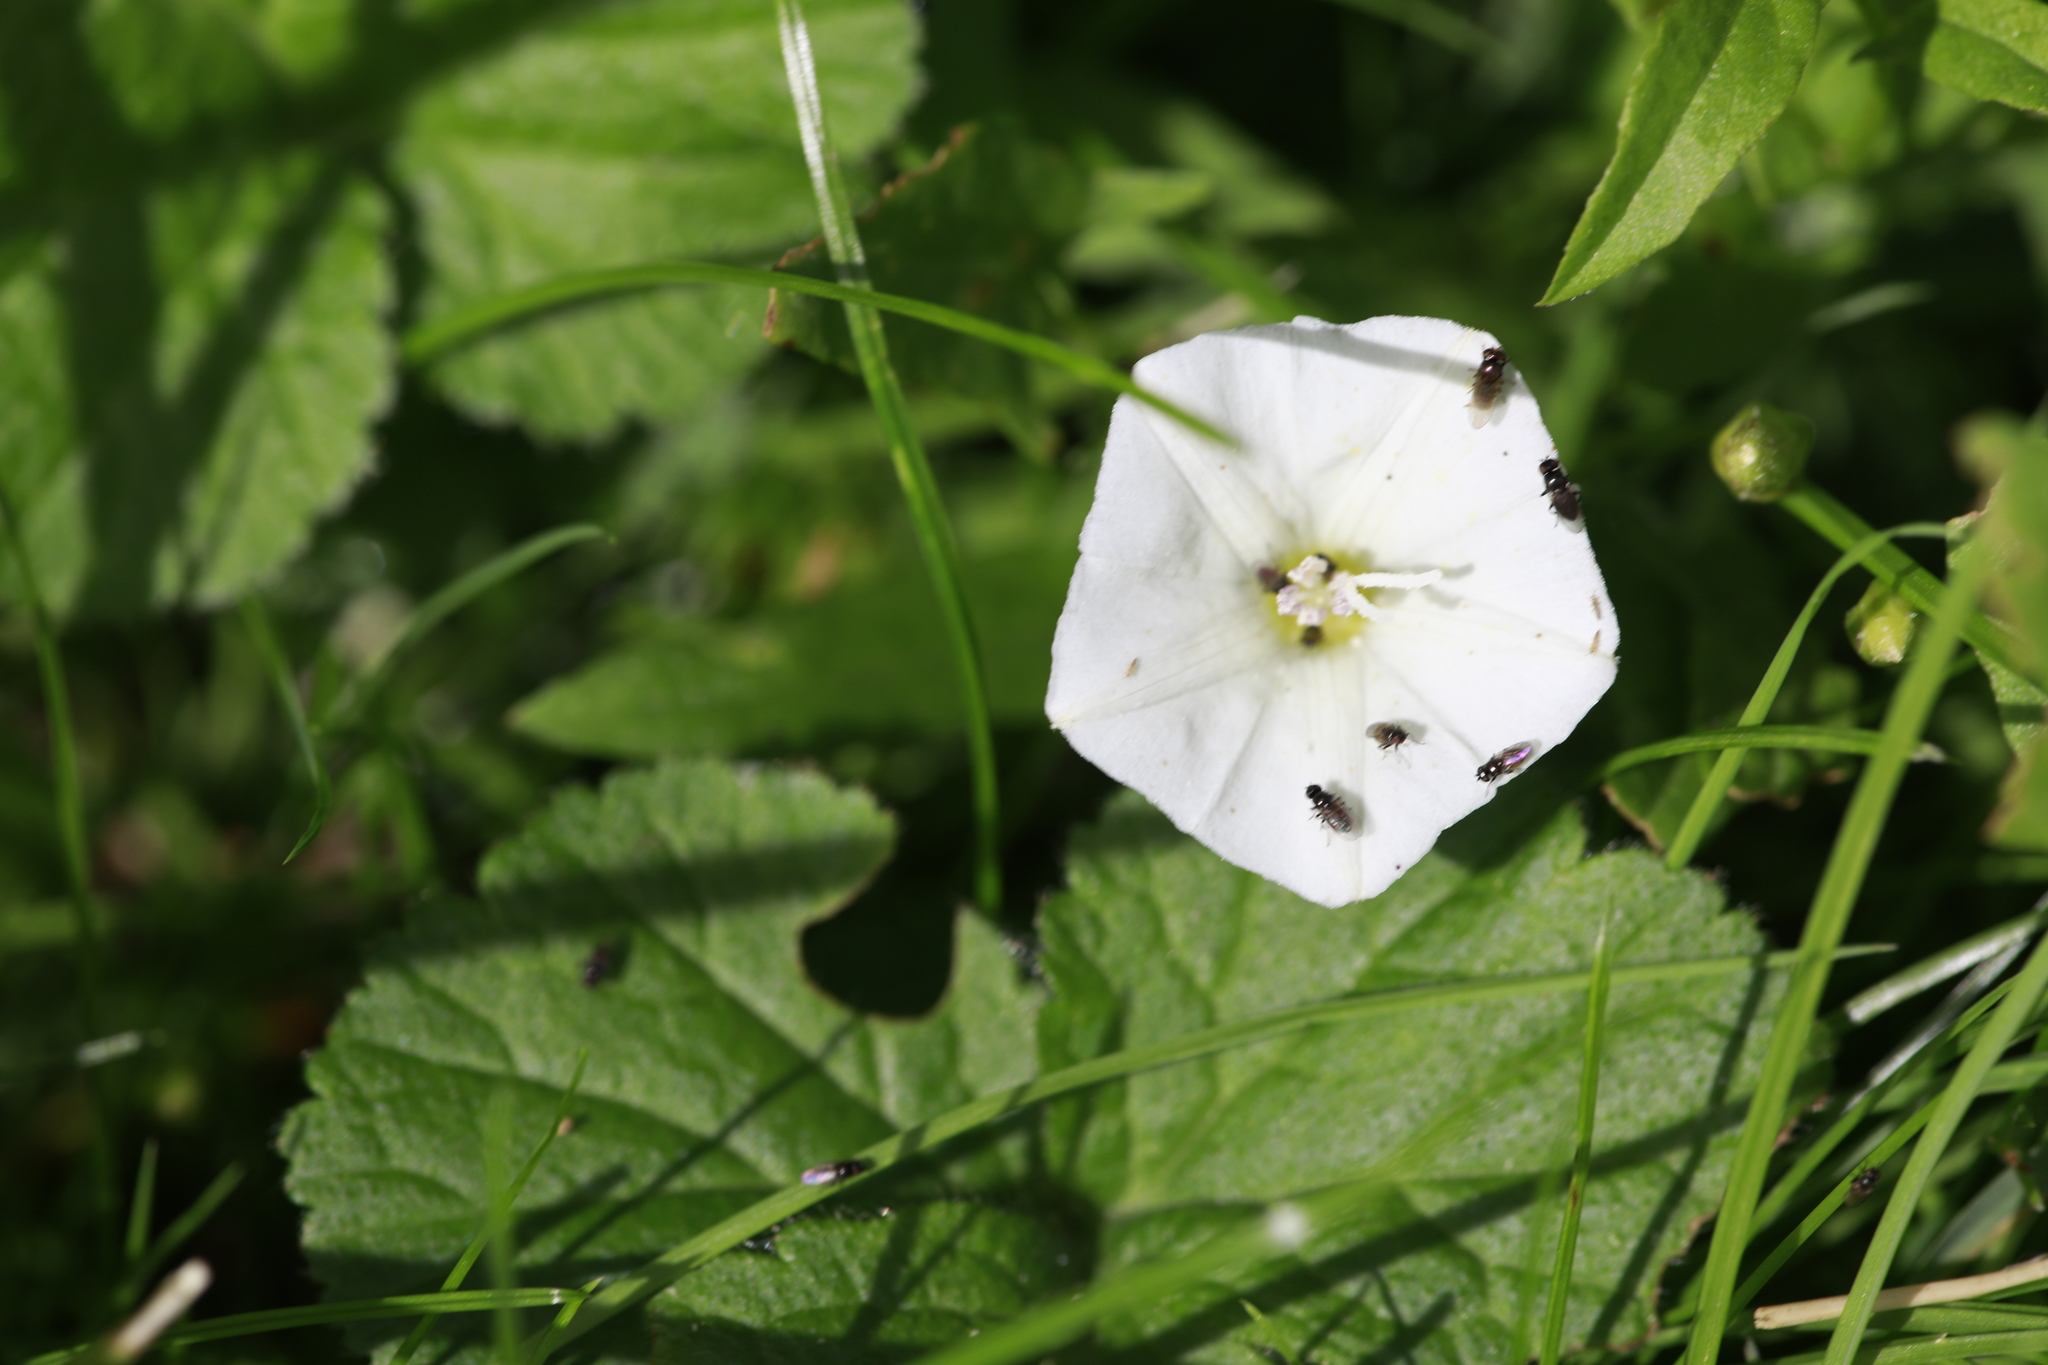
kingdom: Plantae
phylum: Tracheophyta
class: Magnoliopsida
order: Solanales
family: Convolvulaceae
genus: Convolvulus
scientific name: Convolvulus arvensis
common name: Field bindweed
